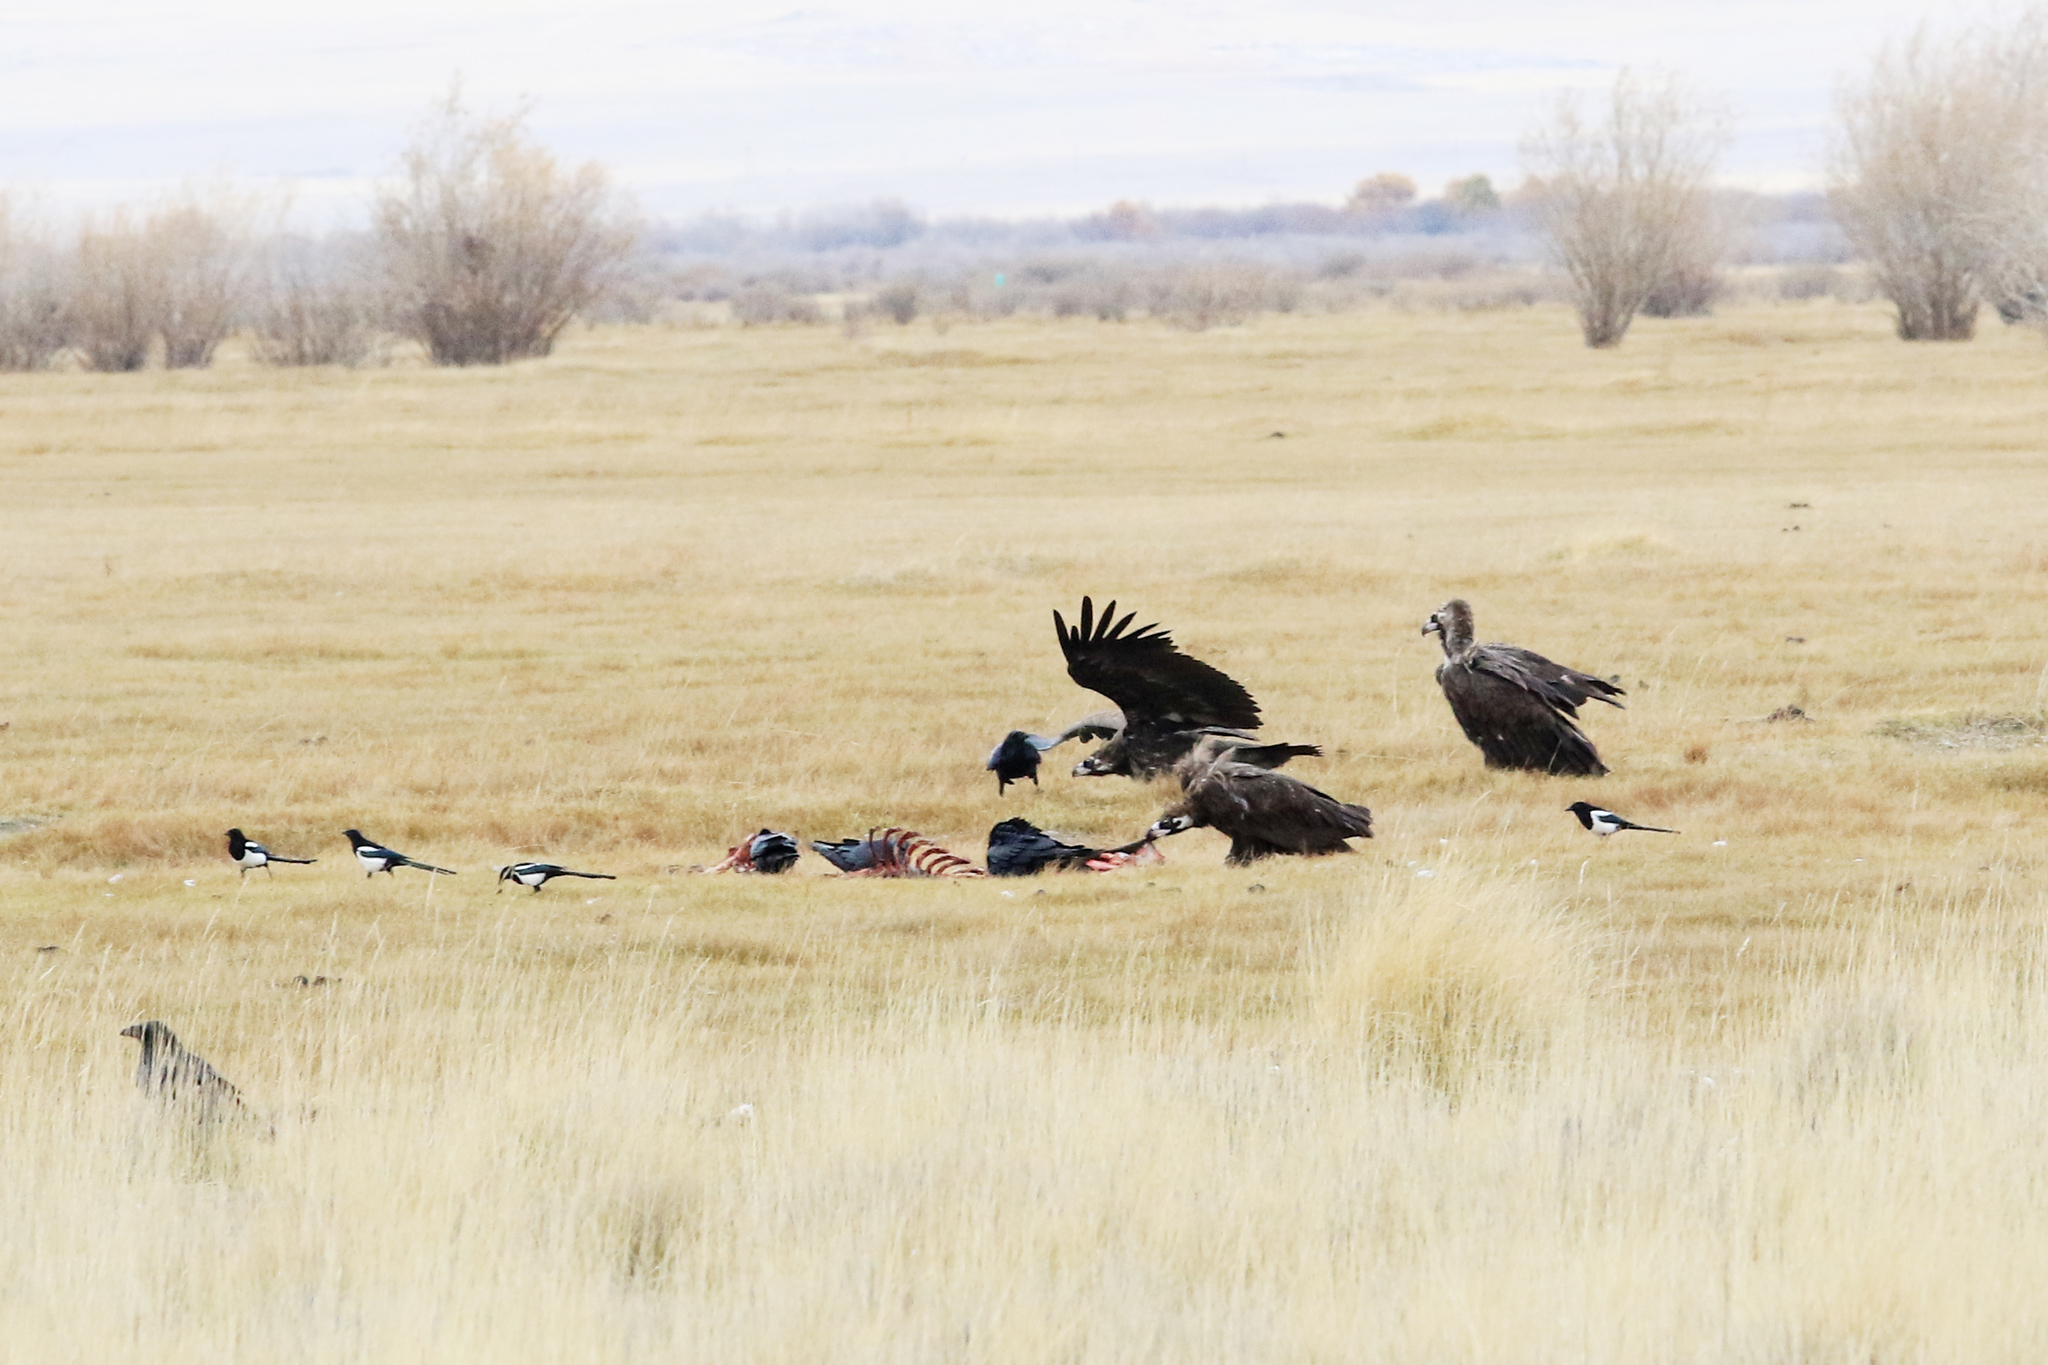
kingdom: Animalia
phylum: Chordata
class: Aves
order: Accipitriformes
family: Accipitridae
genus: Aegypius
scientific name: Aegypius monachus
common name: Cinereous vulture
